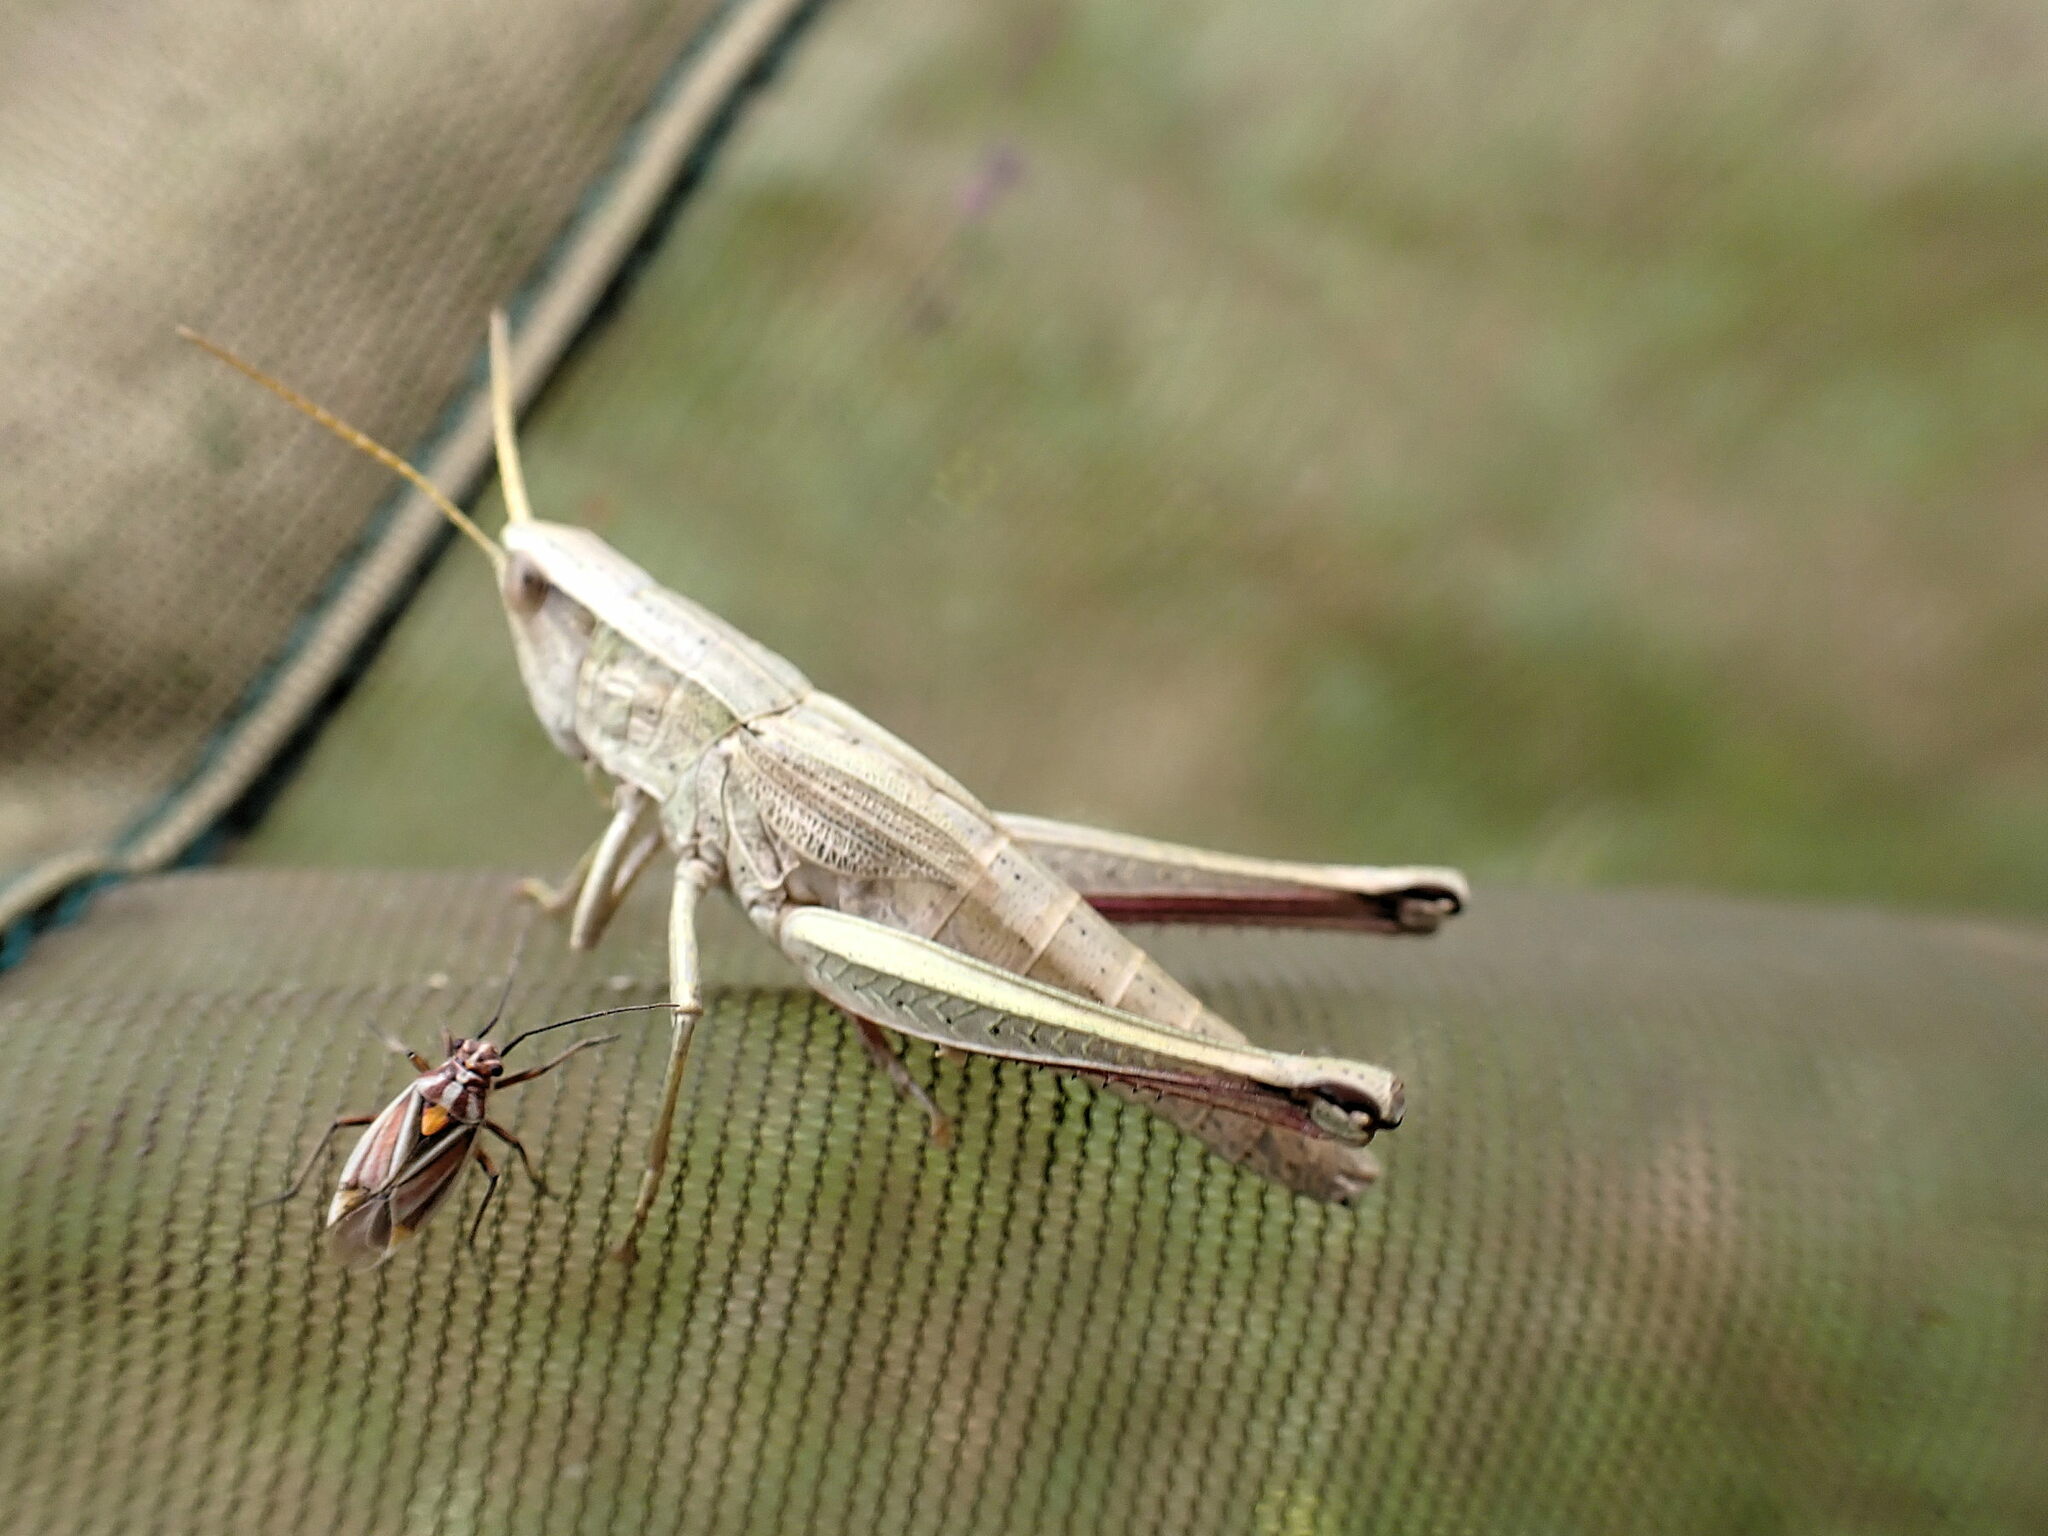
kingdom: Animalia
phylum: Arthropoda
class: Insecta
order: Orthoptera
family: Acrididae
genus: Chrysochraon
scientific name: Chrysochraon dispar
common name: Large gold grasshopper
